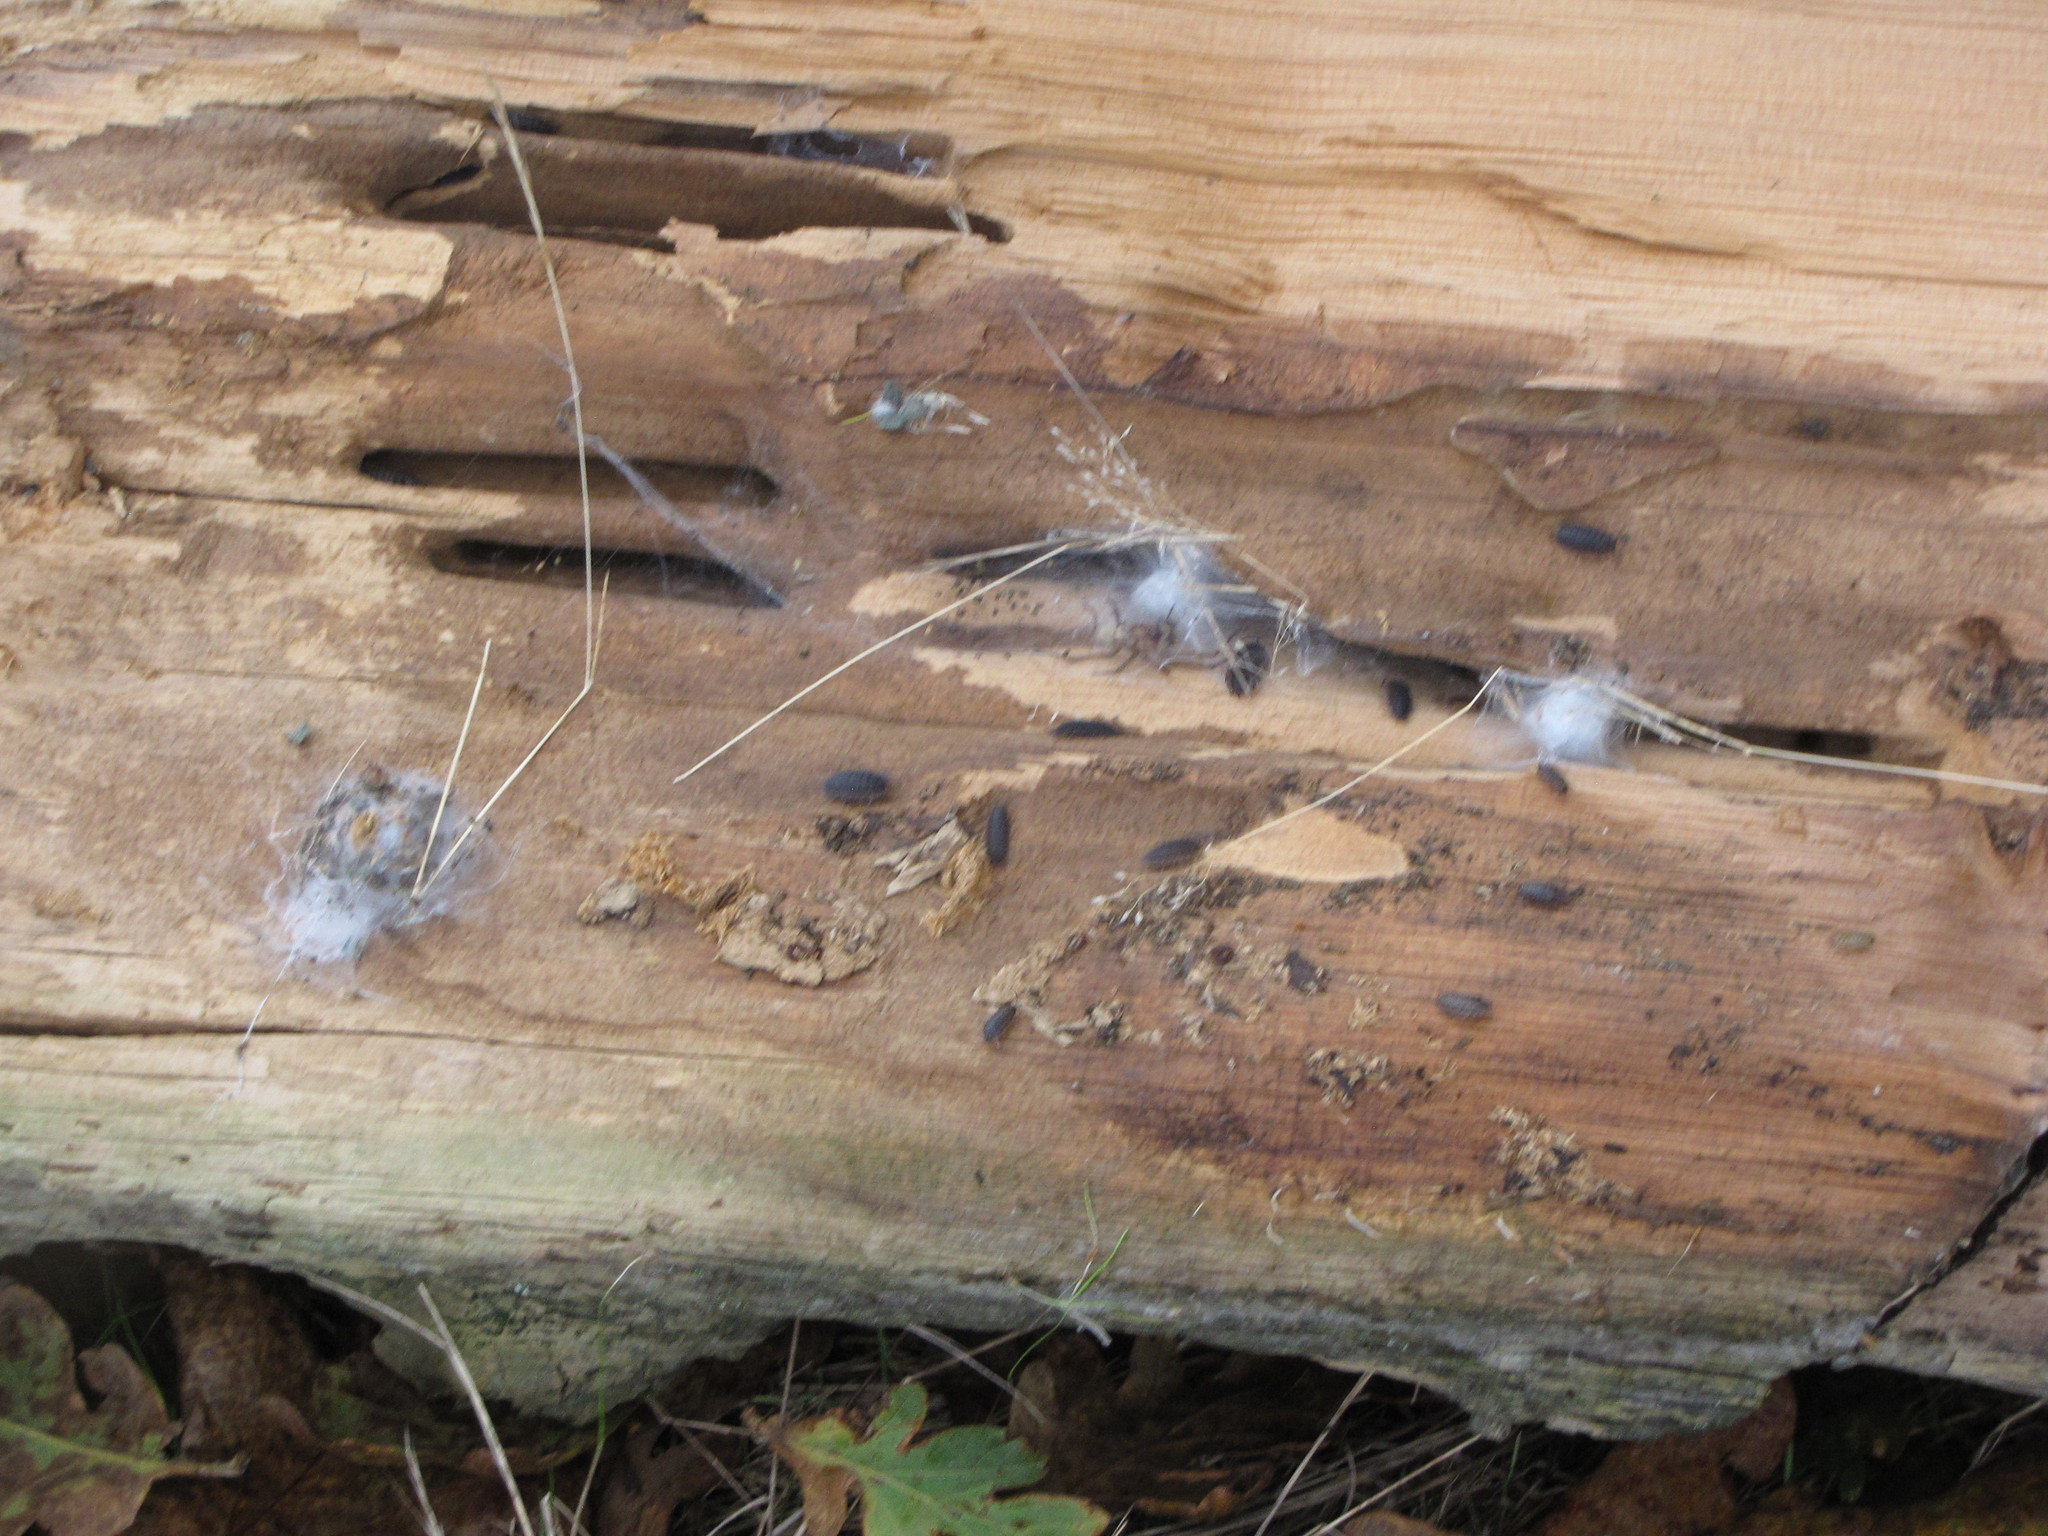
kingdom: Animalia
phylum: Arthropoda
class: Malacostraca
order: Isopoda
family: Porcellionidae
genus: Porcellio
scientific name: Porcellio scaber
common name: Common rough woodlouse
